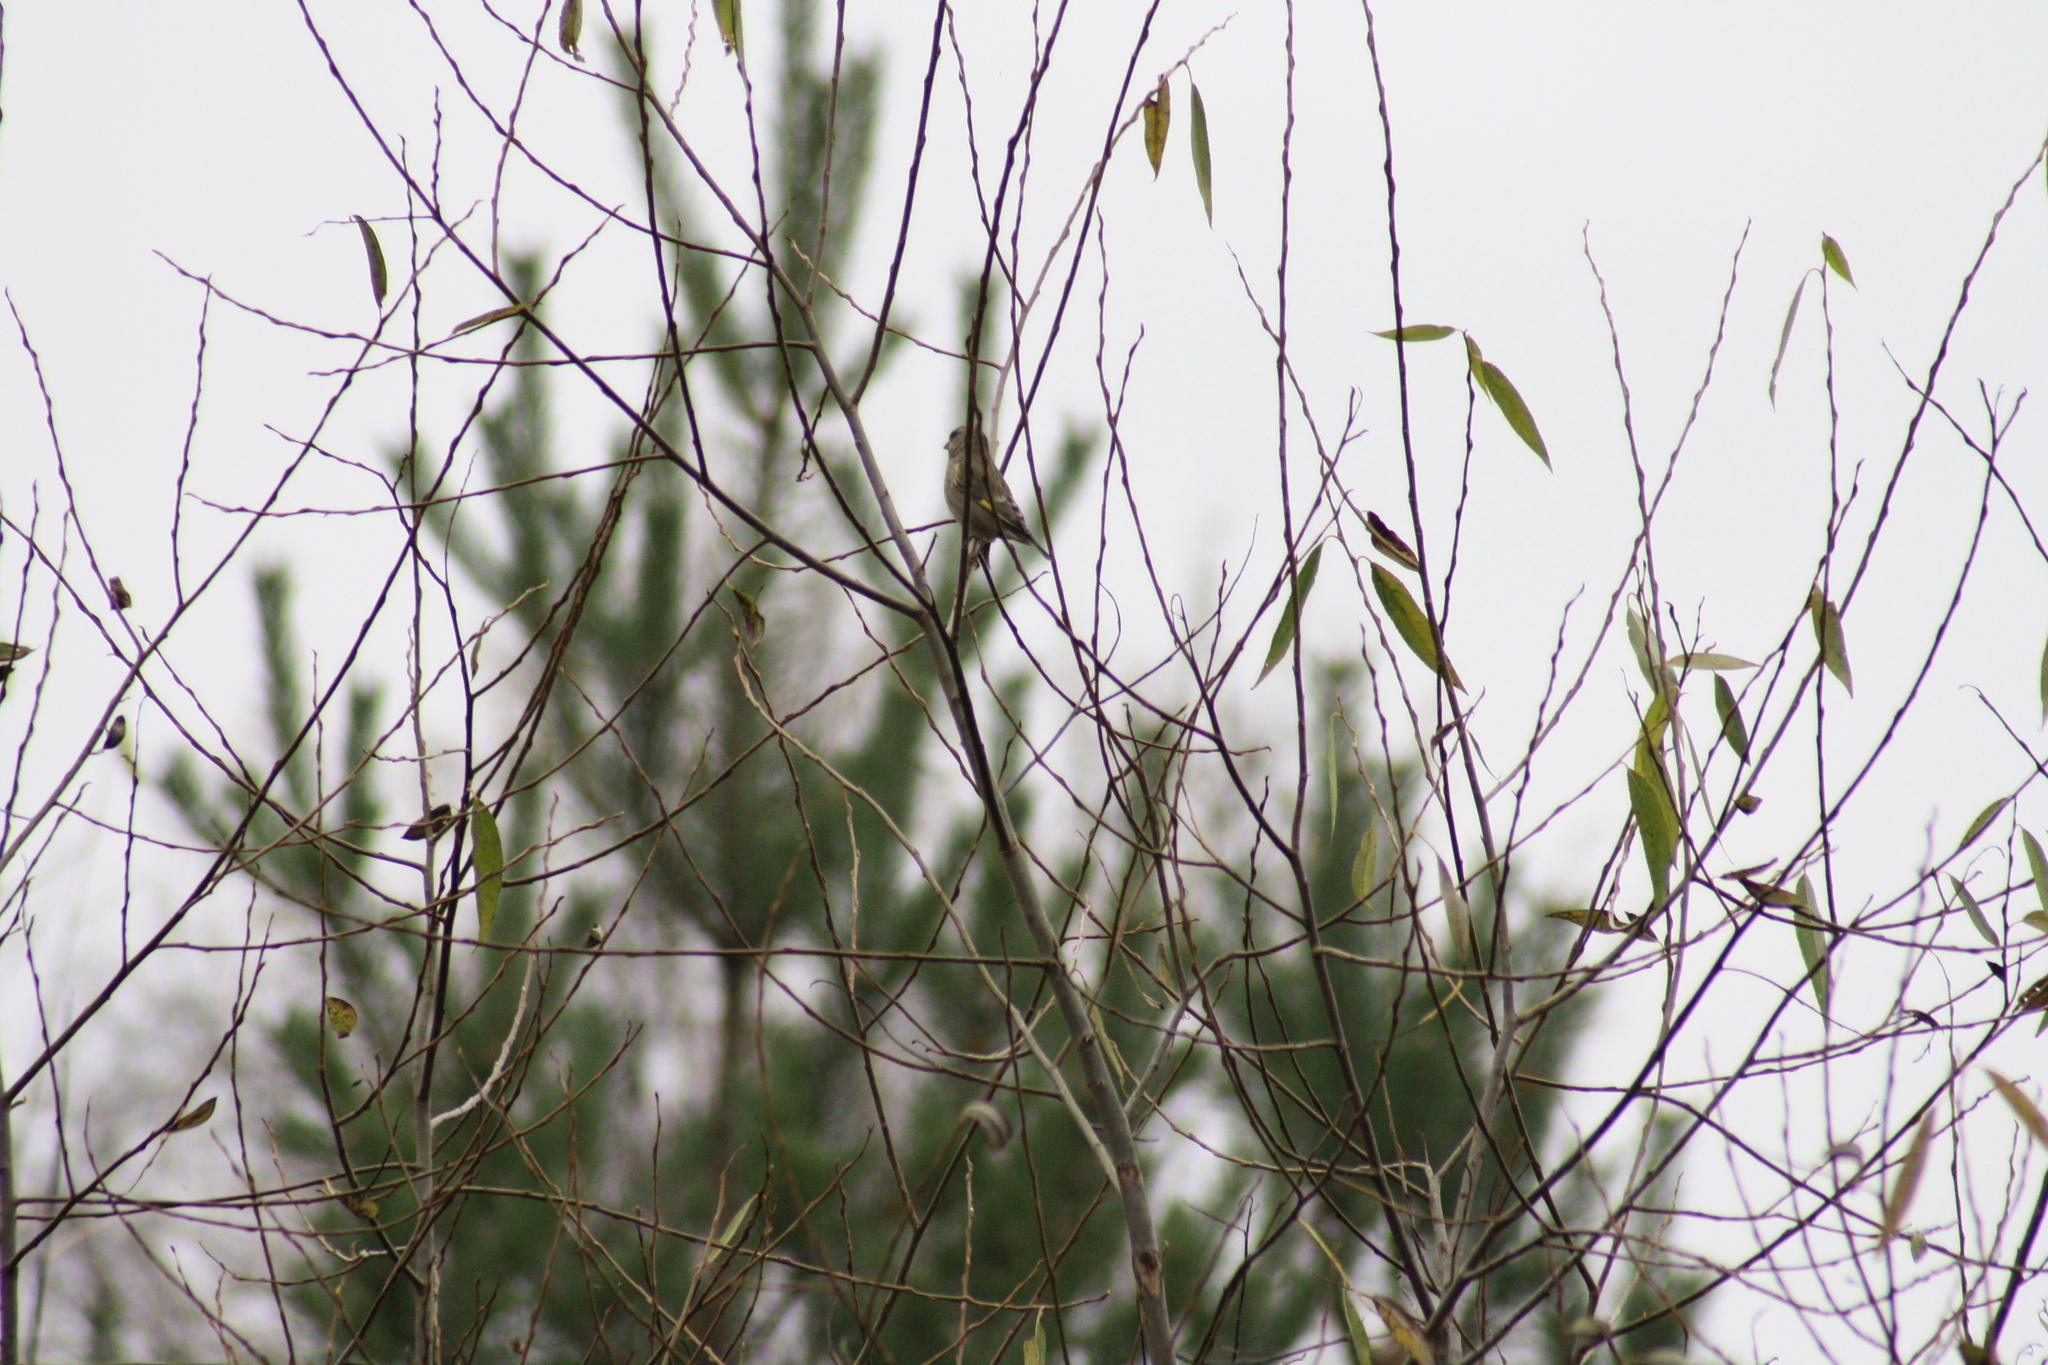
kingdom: Plantae
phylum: Tracheophyta
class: Liliopsida
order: Poales
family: Poaceae
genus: Chloris
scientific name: Chloris chloris
